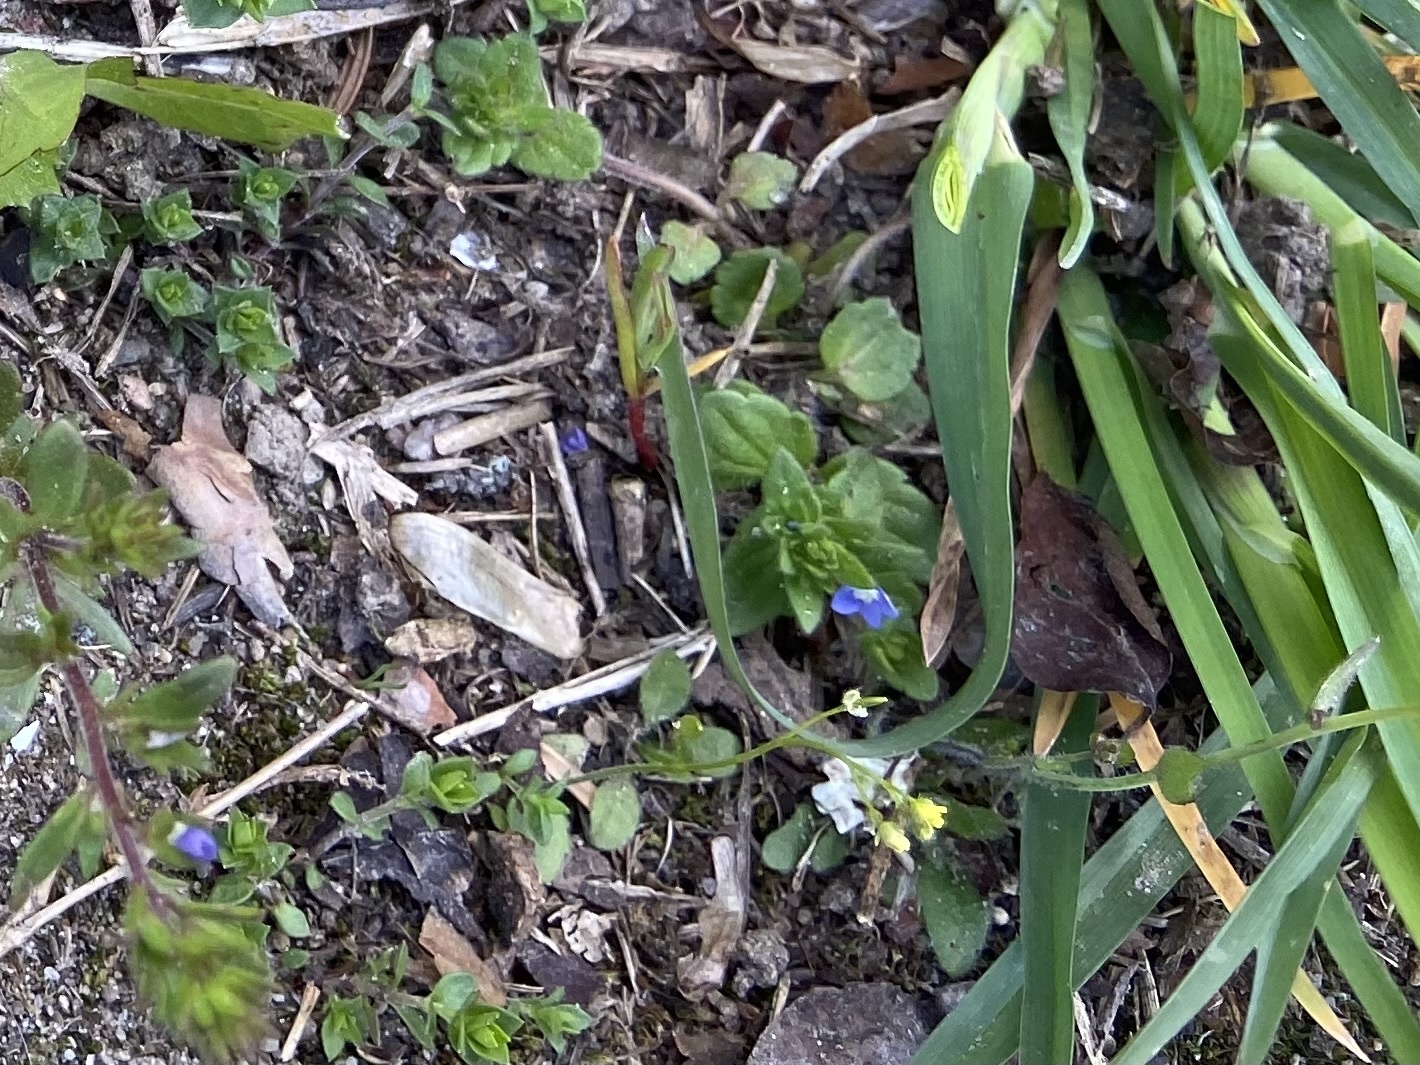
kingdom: Plantae
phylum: Tracheophyta
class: Magnoliopsida
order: Lamiales
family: Plantaginaceae
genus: Veronica
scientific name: Veronica arvensis
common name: Corn speedwell
